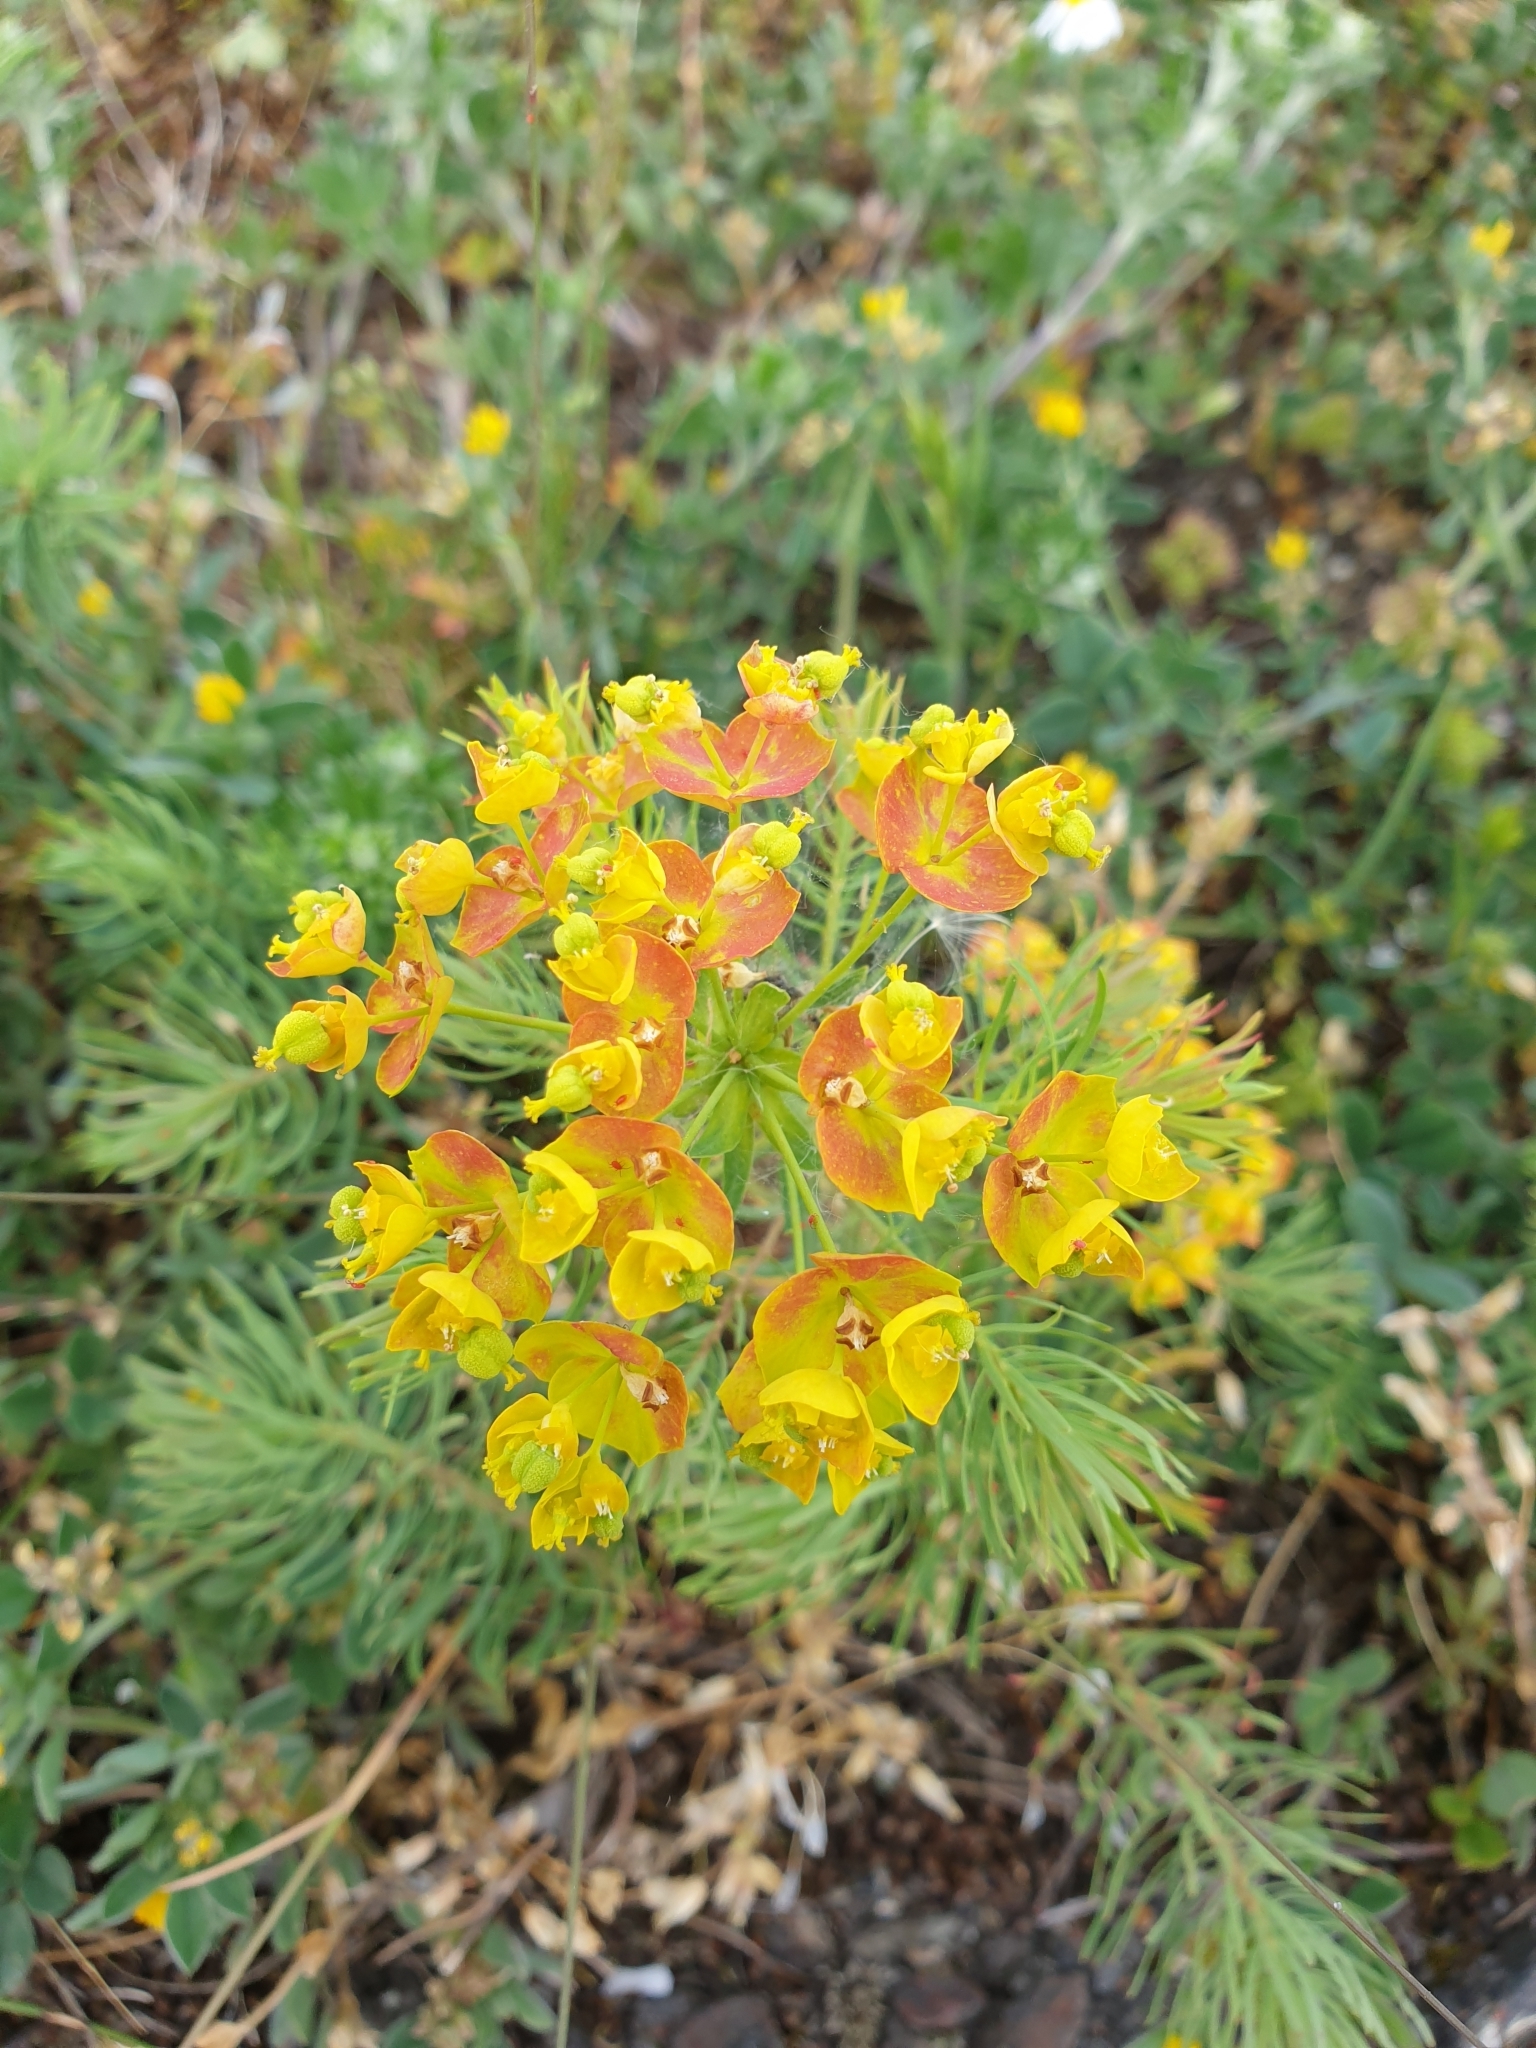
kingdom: Plantae
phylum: Tracheophyta
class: Magnoliopsida
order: Malpighiales
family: Euphorbiaceae
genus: Euphorbia
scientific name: Euphorbia cyparissias
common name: Cypress spurge
